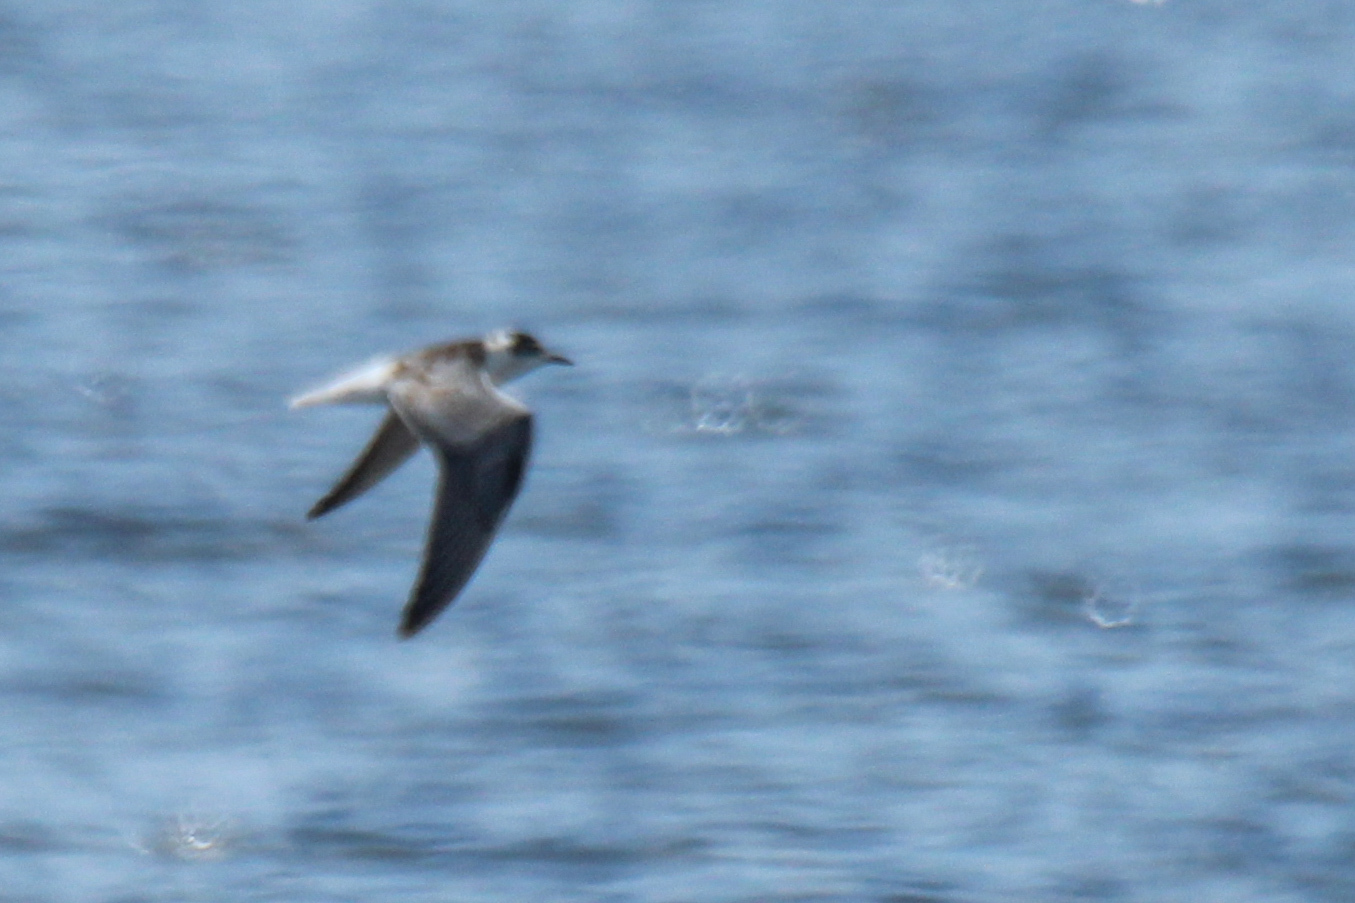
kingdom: Animalia
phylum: Chordata
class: Aves
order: Charadriiformes
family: Laridae
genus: Chlidonias
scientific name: Chlidonias leucopterus
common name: White-winged tern
